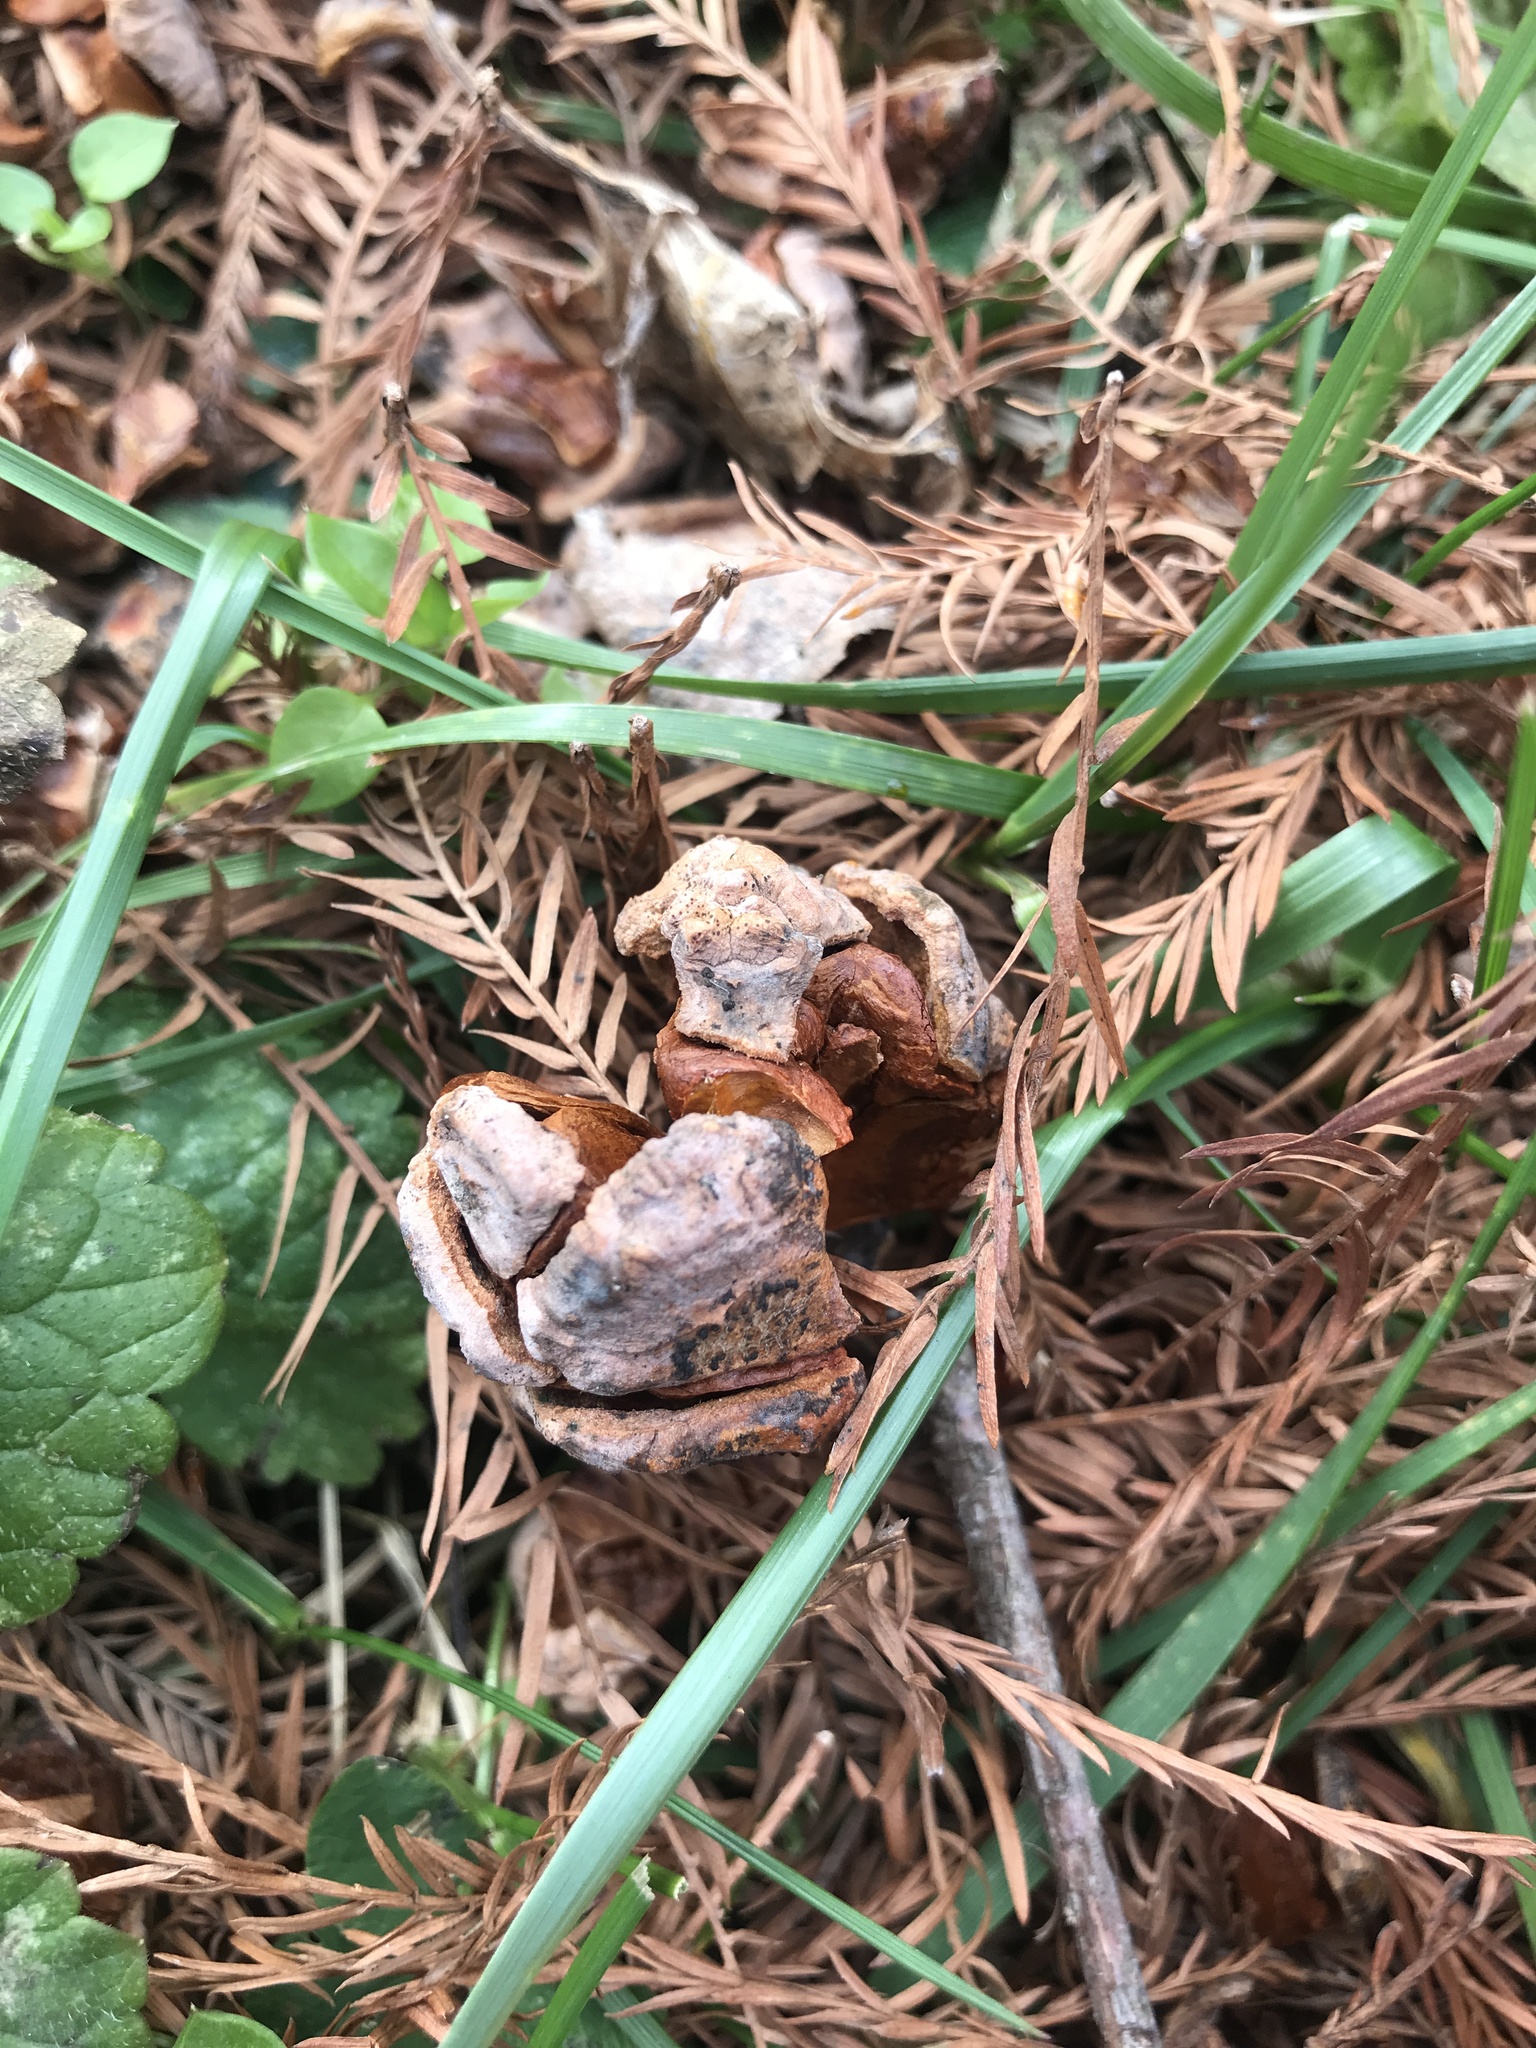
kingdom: Plantae
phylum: Tracheophyta
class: Pinopsida
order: Pinales
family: Cupressaceae
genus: Taxodium
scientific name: Taxodium distichum
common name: Bald cypress
